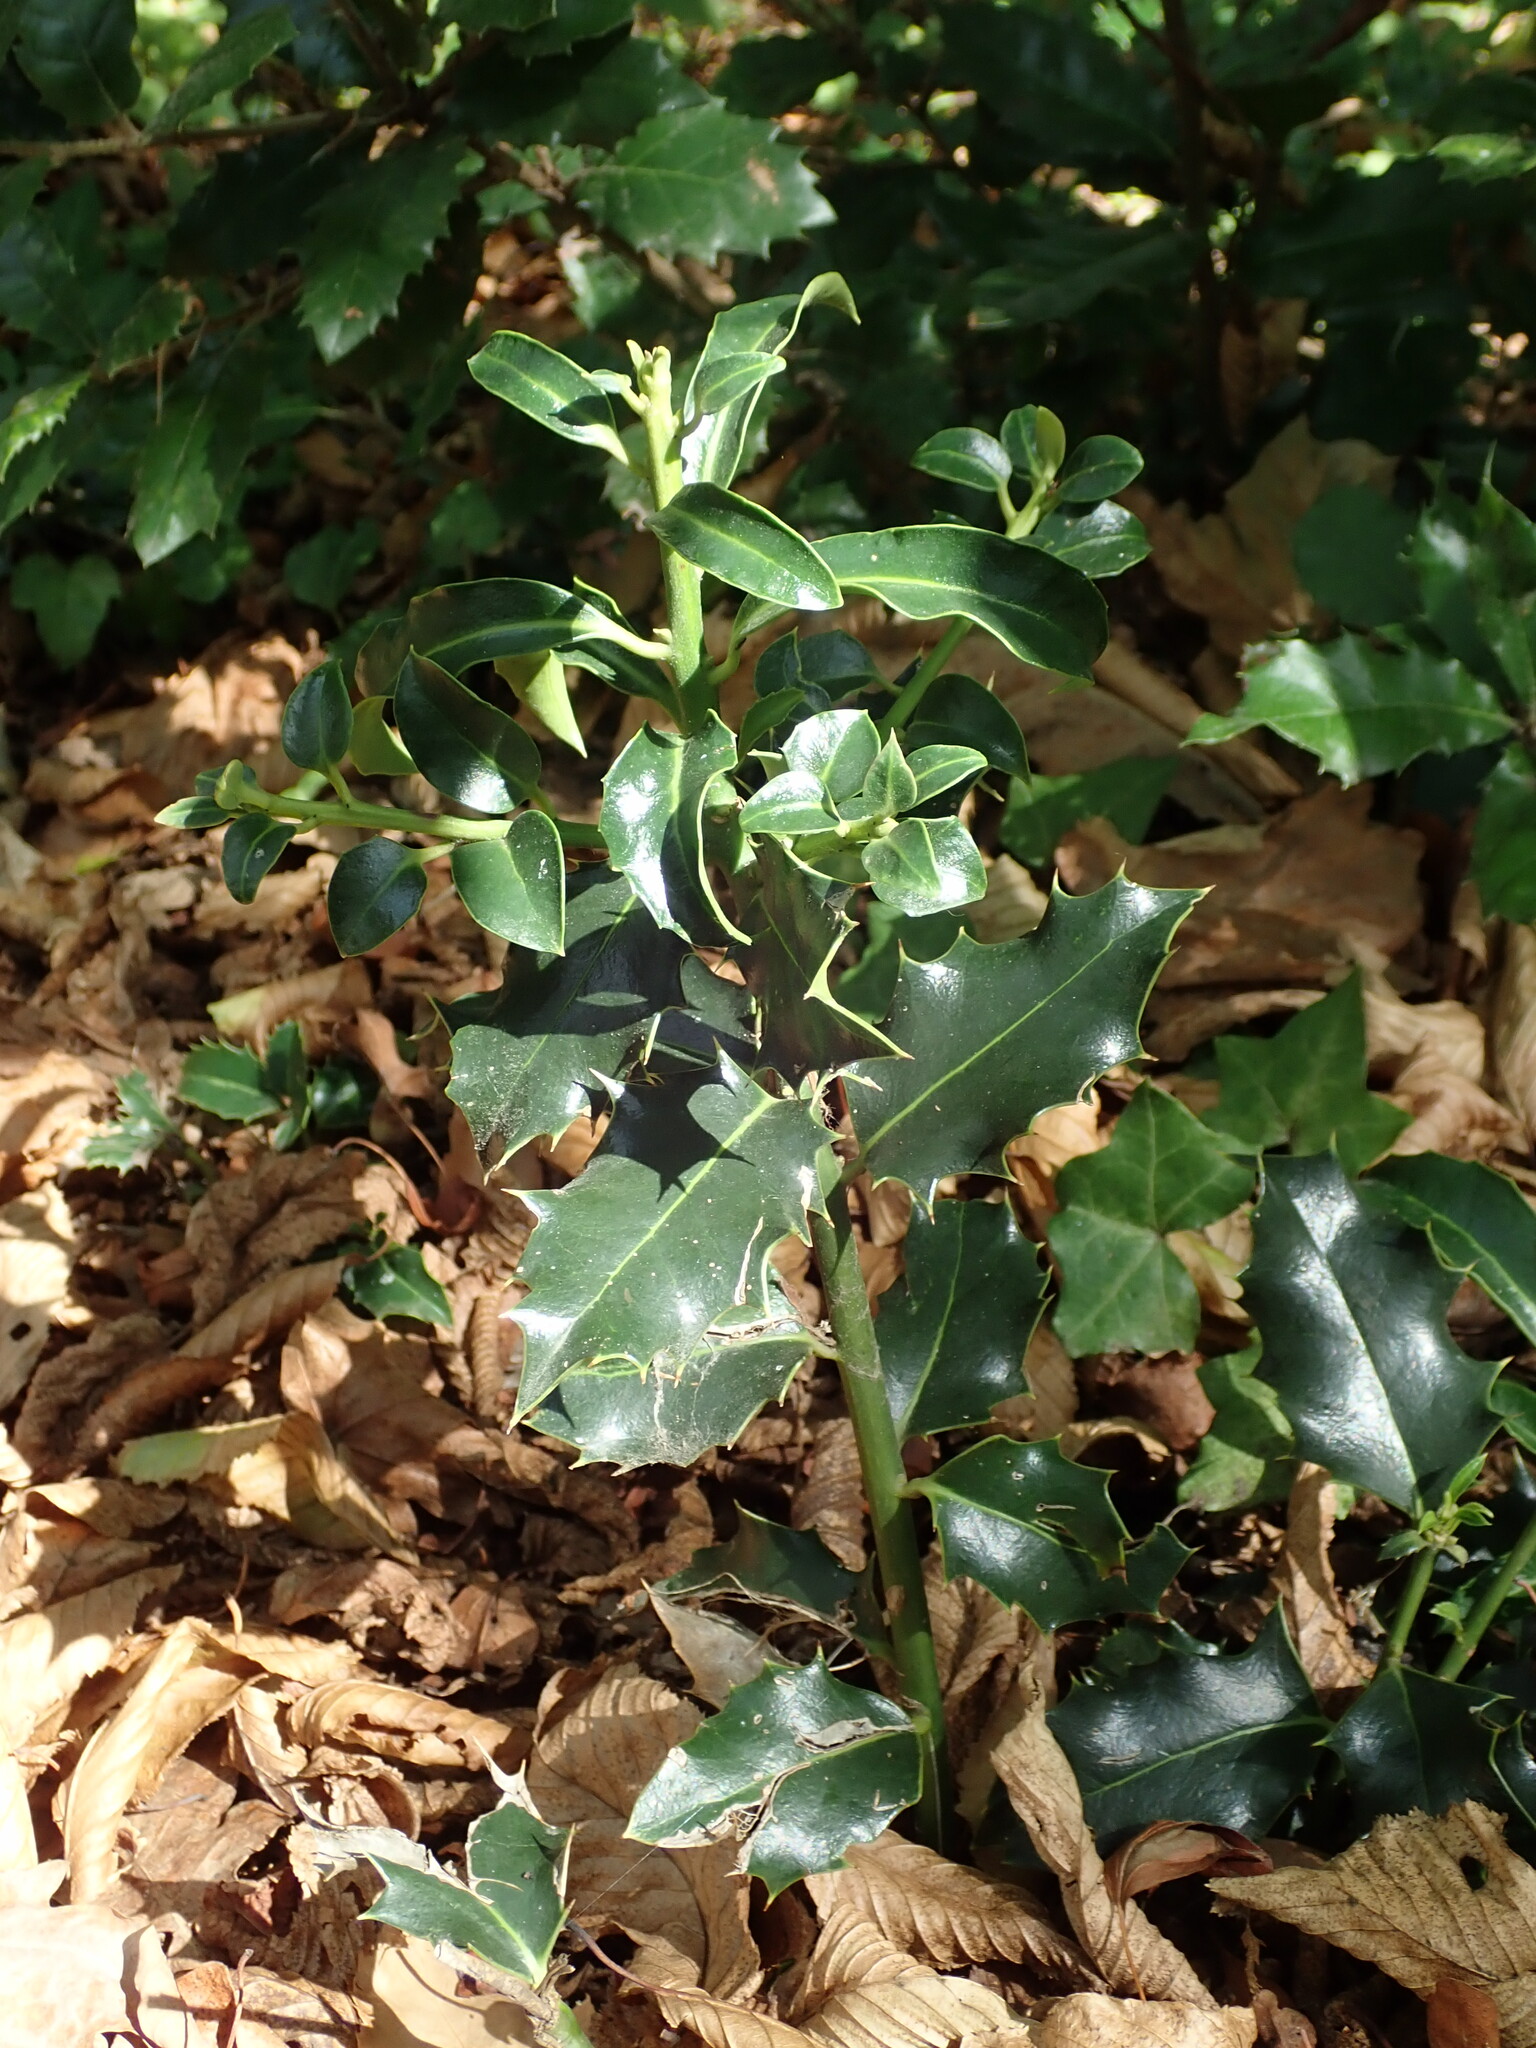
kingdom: Plantae
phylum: Tracheophyta
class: Magnoliopsida
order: Aquifoliales
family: Aquifoliaceae
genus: Ilex
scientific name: Ilex aquifolium
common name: English holly
